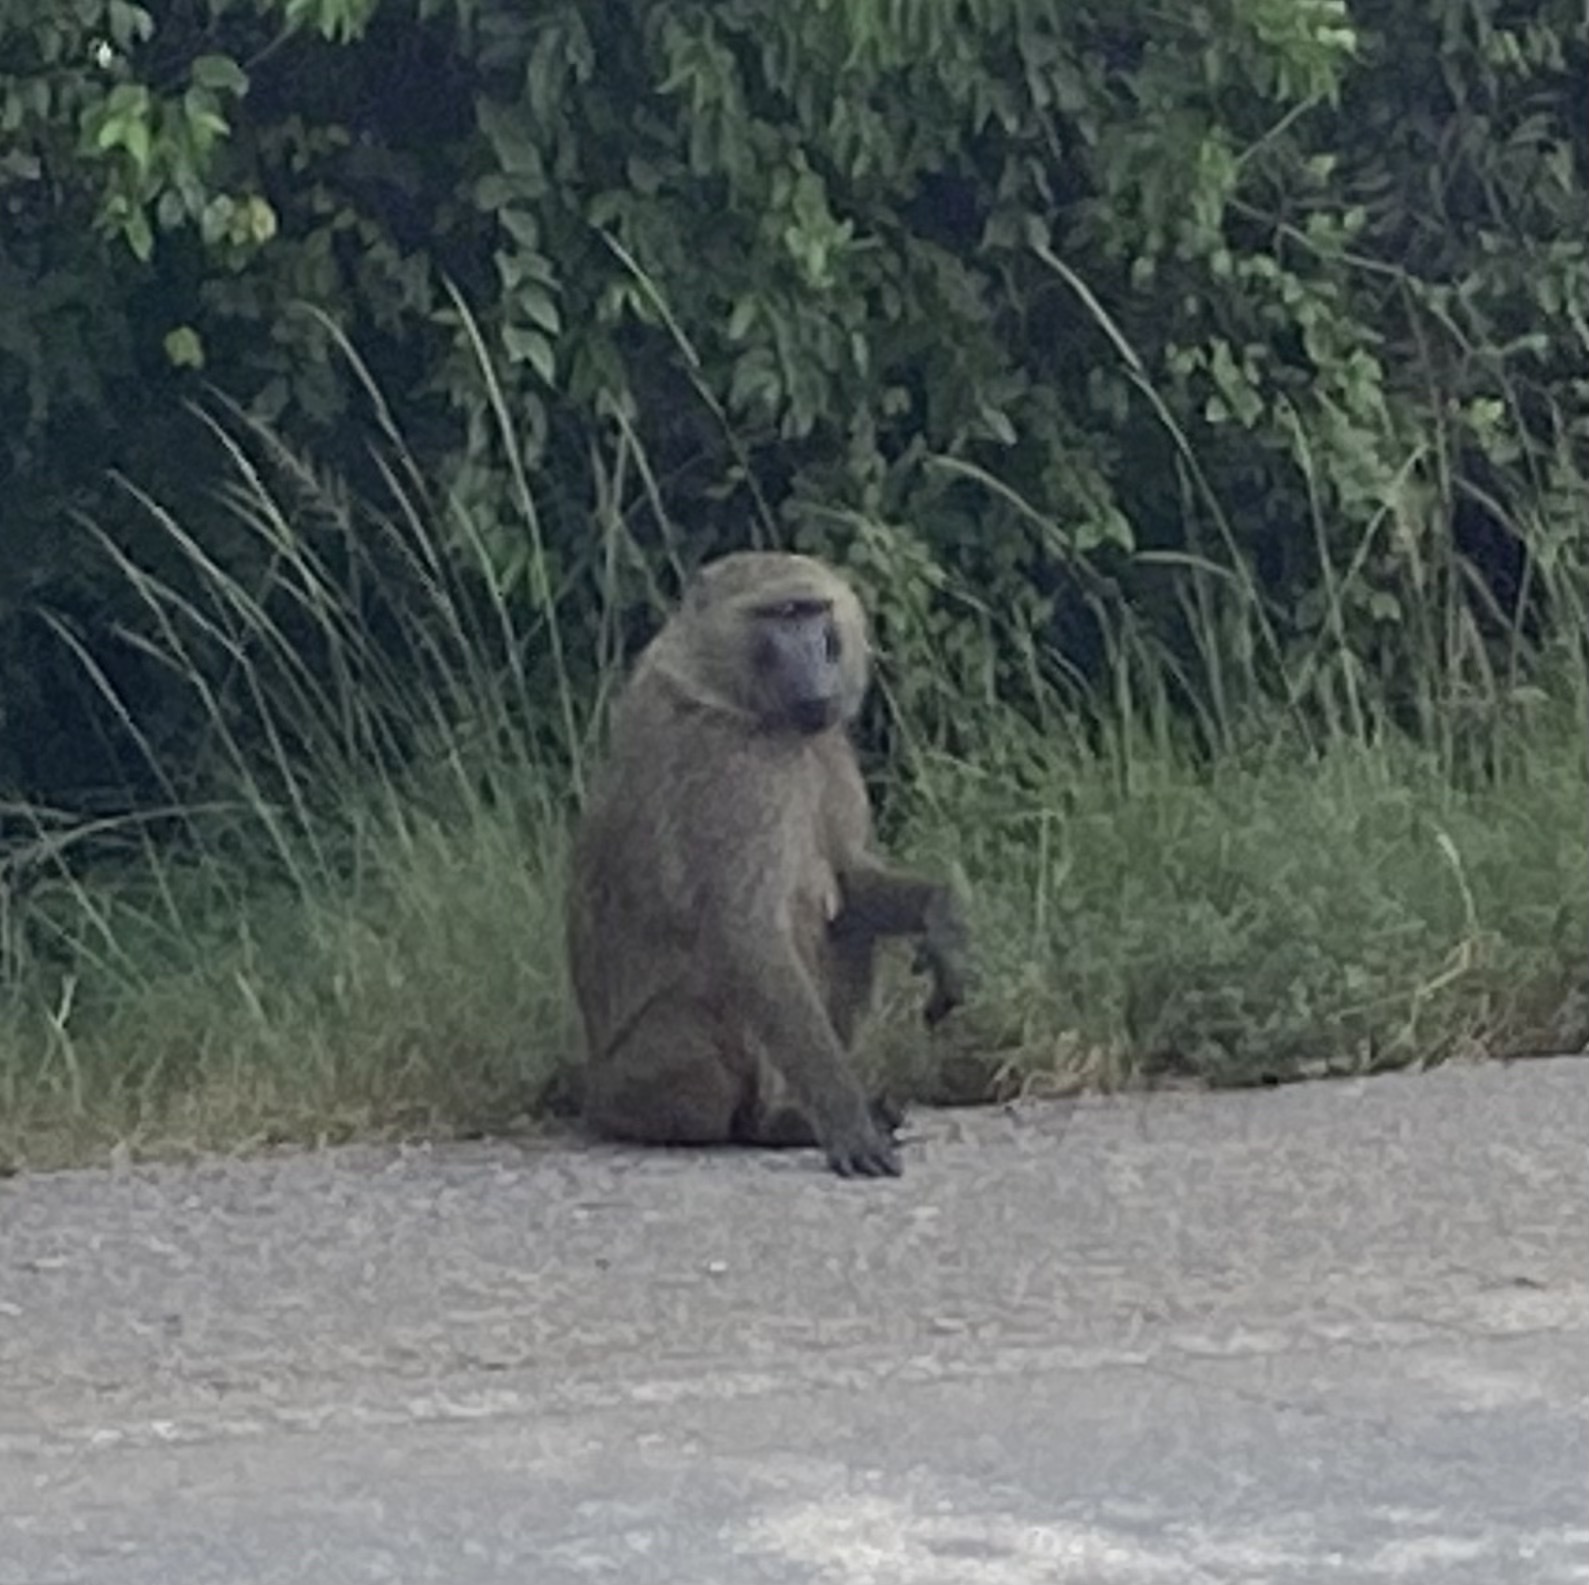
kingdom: Animalia
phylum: Chordata
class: Mammalia
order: Primates
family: Cercopithecidae
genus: Papio
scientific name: Papio anubis
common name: Olive baboon
